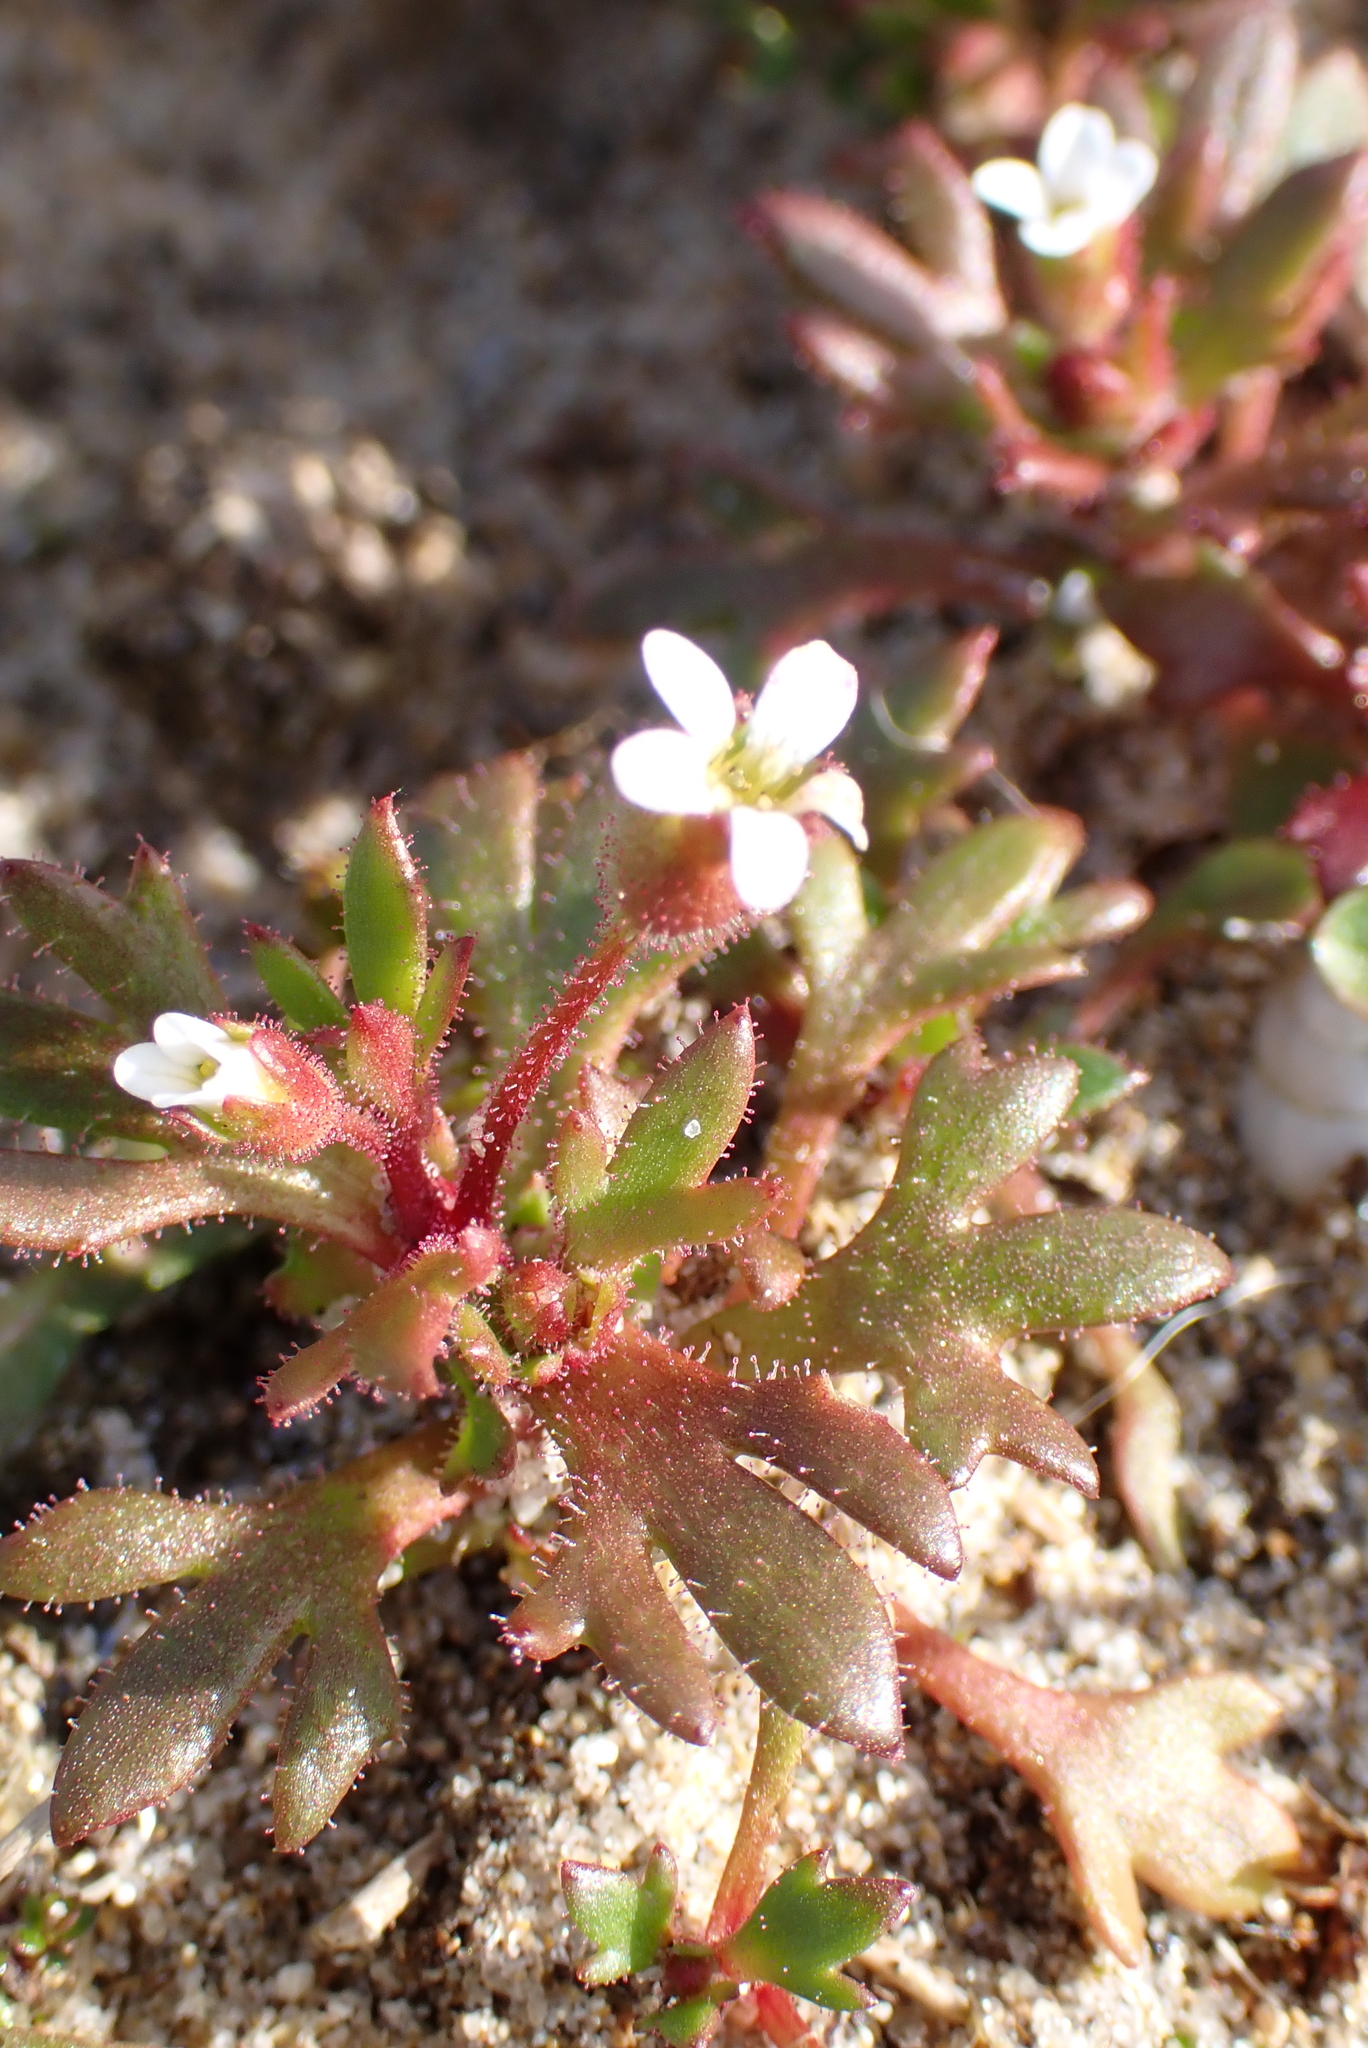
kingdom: Plantae
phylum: Tracheophyta
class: Magnoliopsida
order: Saxifragales
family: Saxifragaceae
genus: Saxifraga
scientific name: Saxifraga tridactylites
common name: Rue-leaved saxifrage
